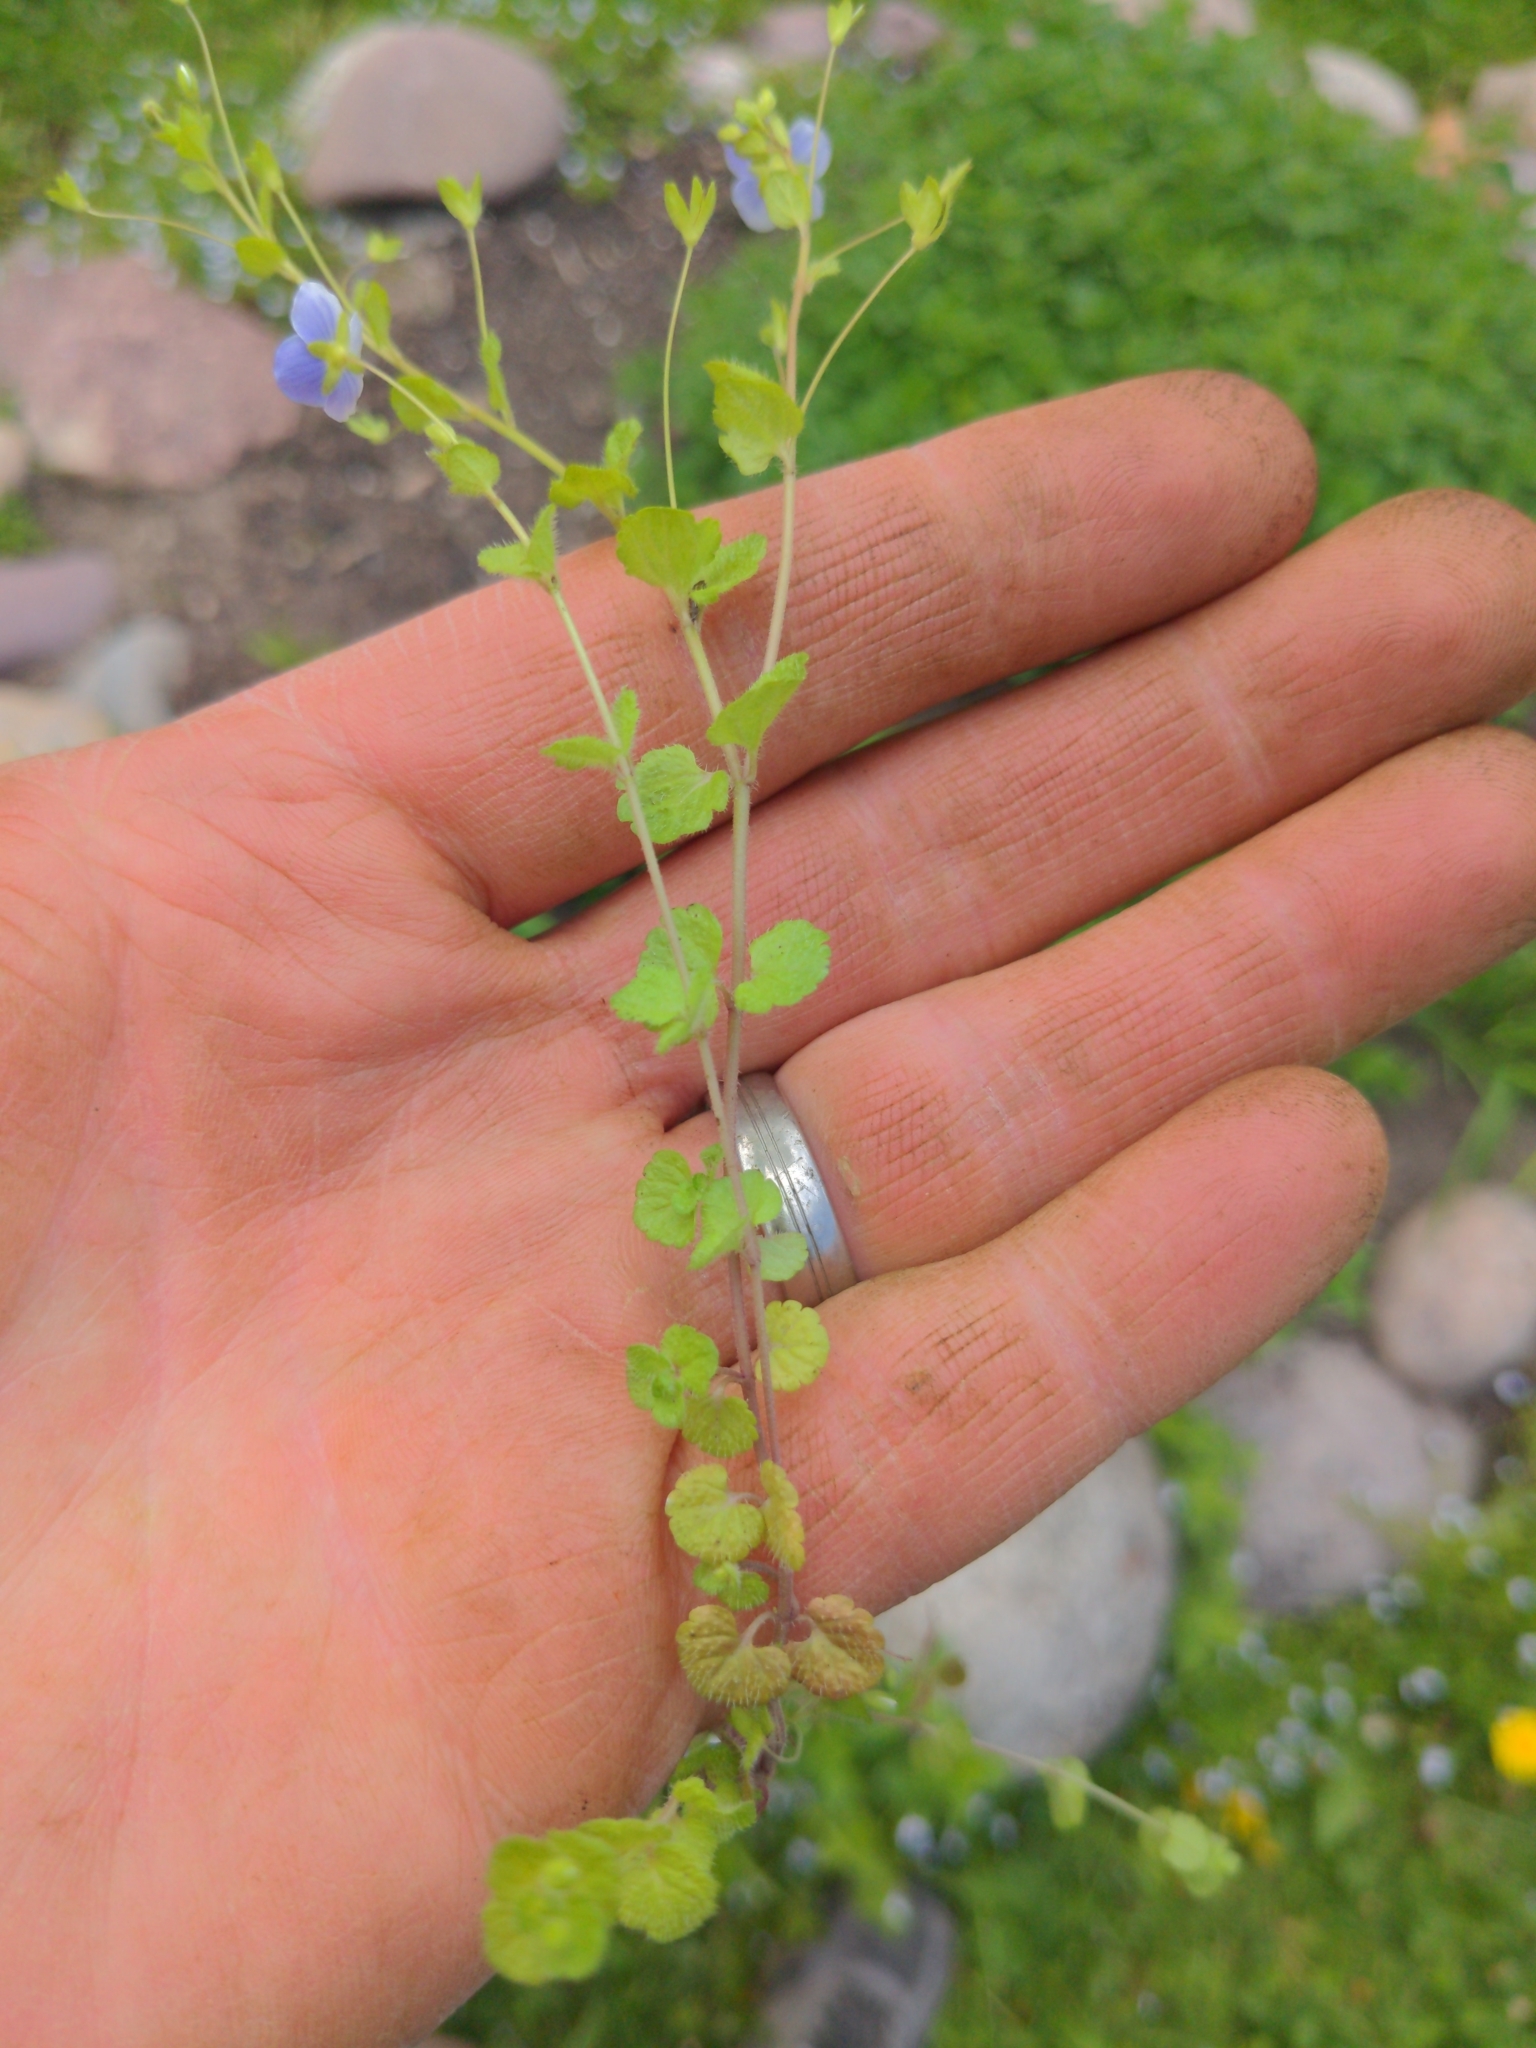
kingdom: Plantae
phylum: Tracheophyta
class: Magnoliopsida
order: Lamiales
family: Plantaginaceae
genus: Veronica
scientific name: Veronica filiformis
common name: Slender speedwell
